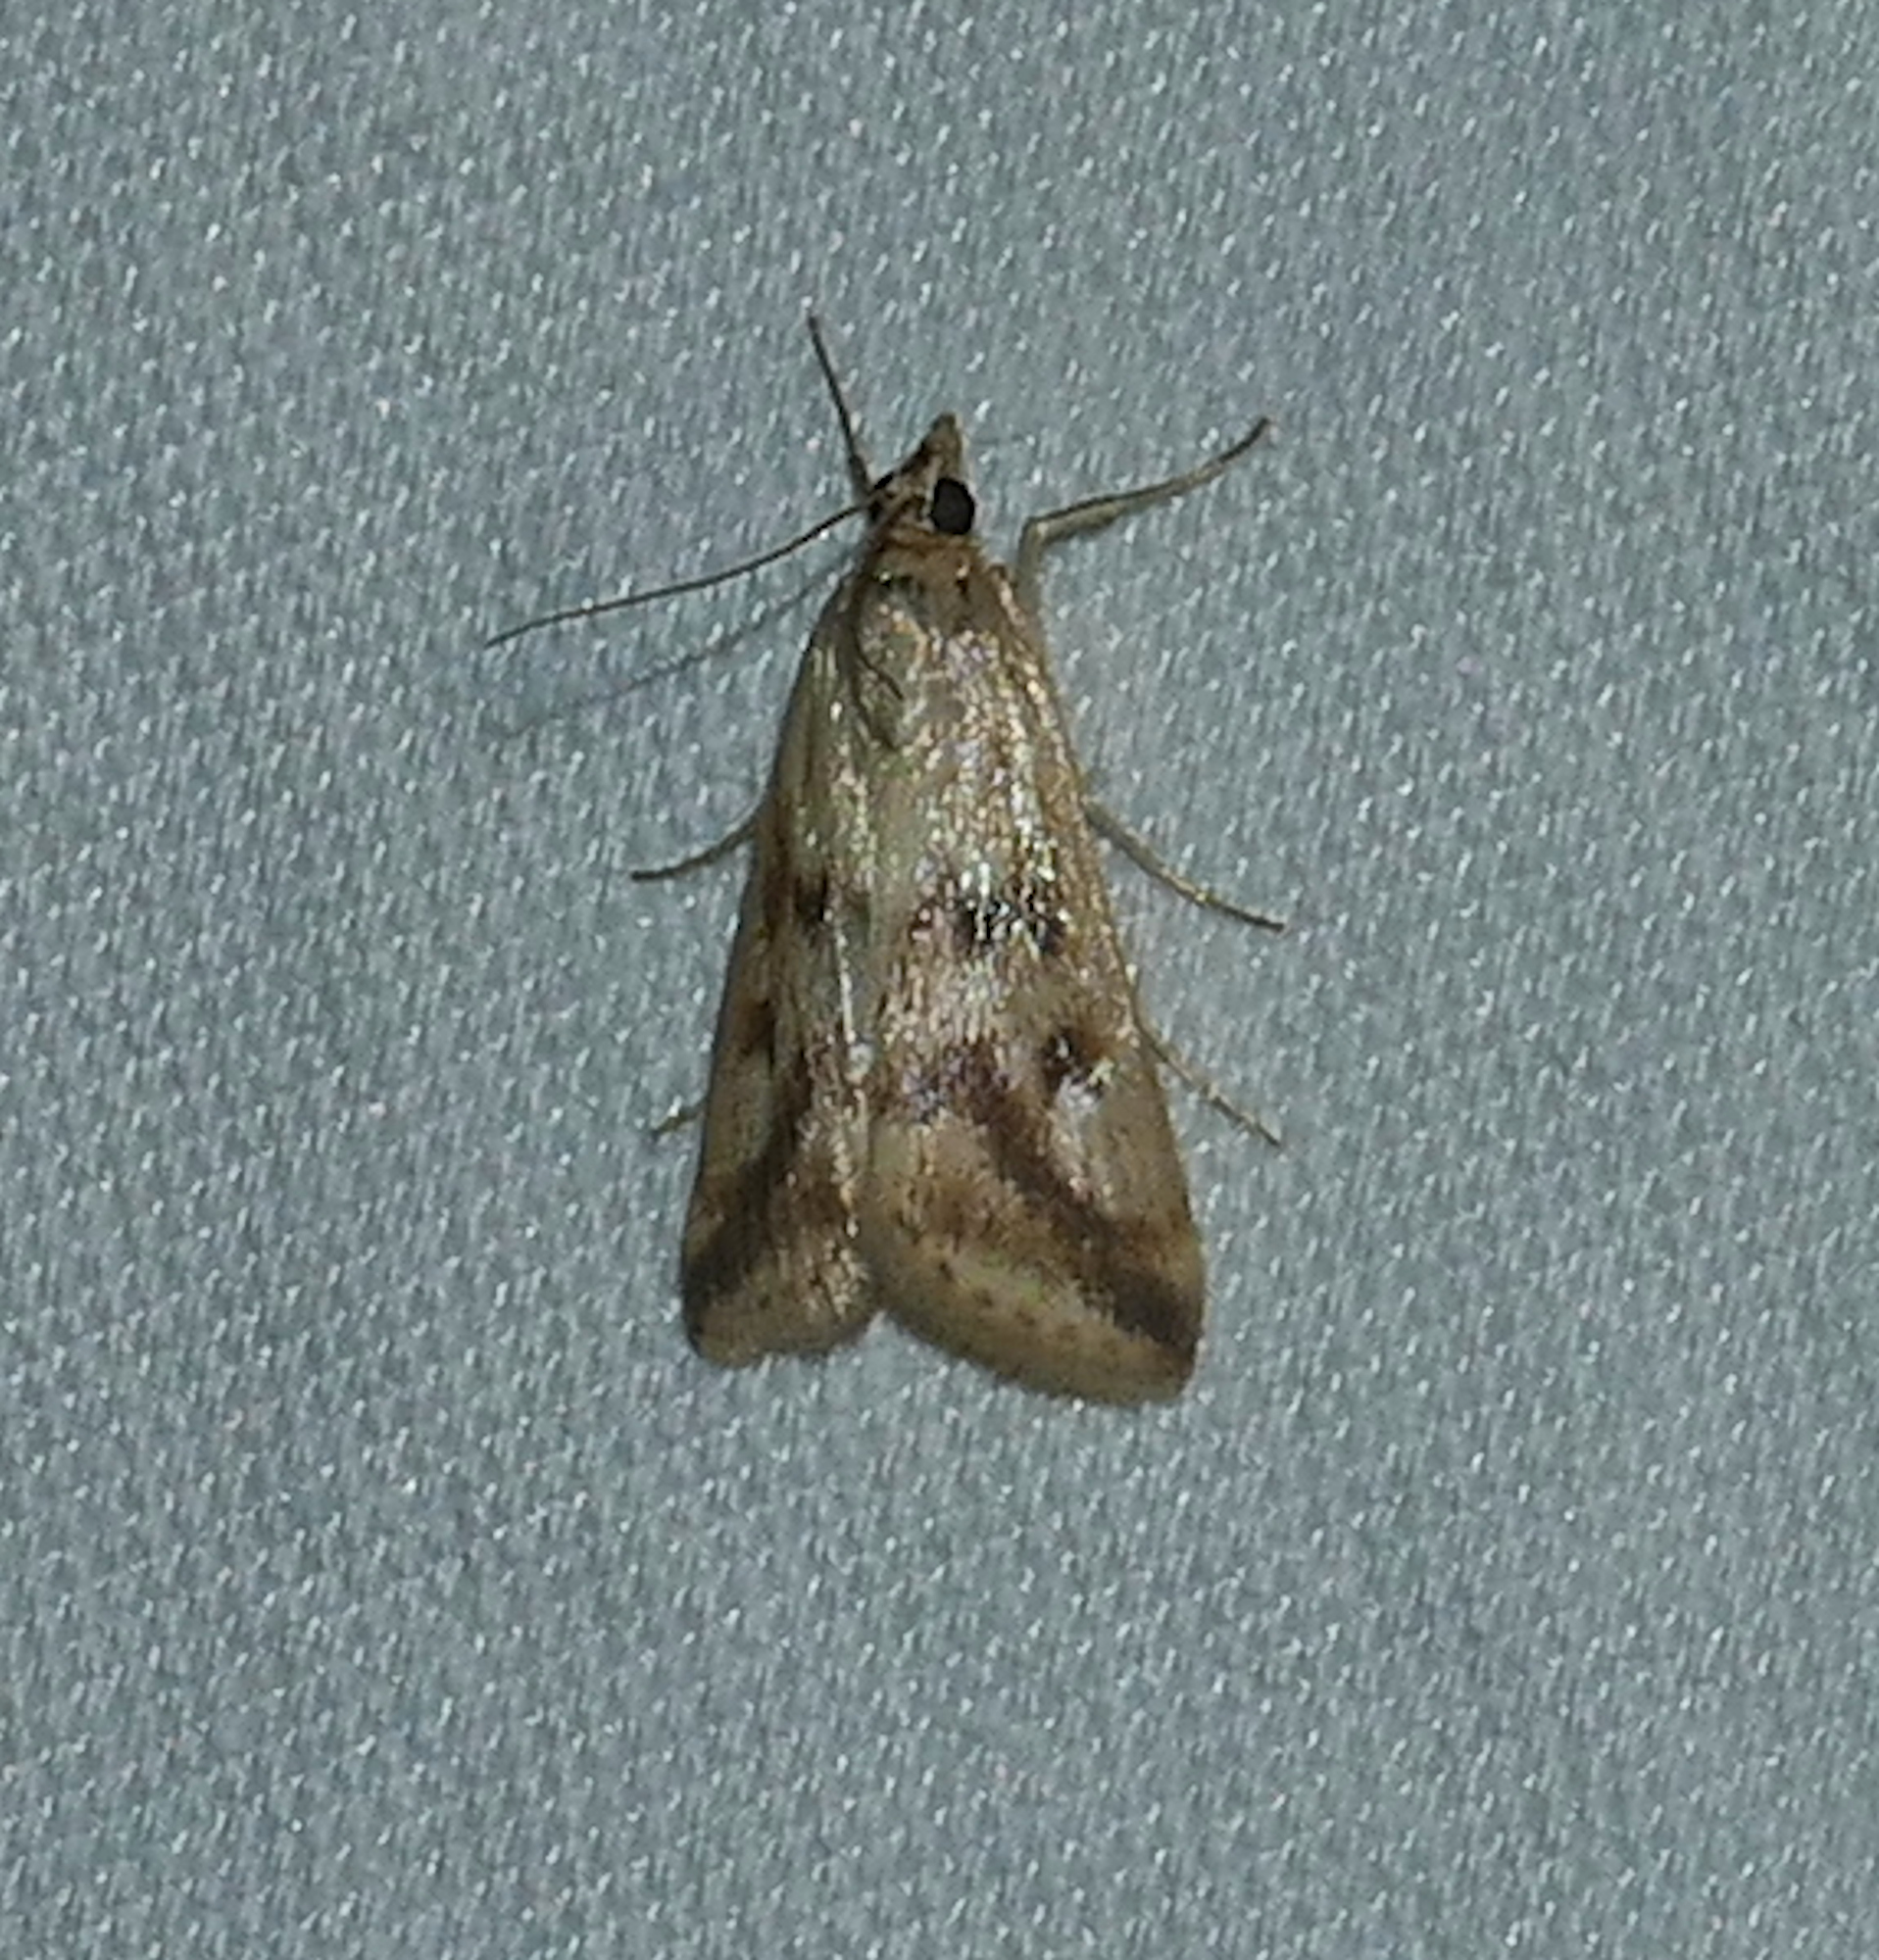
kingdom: Animalia
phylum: Arthropoda
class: Insecta
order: Lepidoptera
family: Crambidae
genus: Achyra
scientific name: Achyra bifidalis
